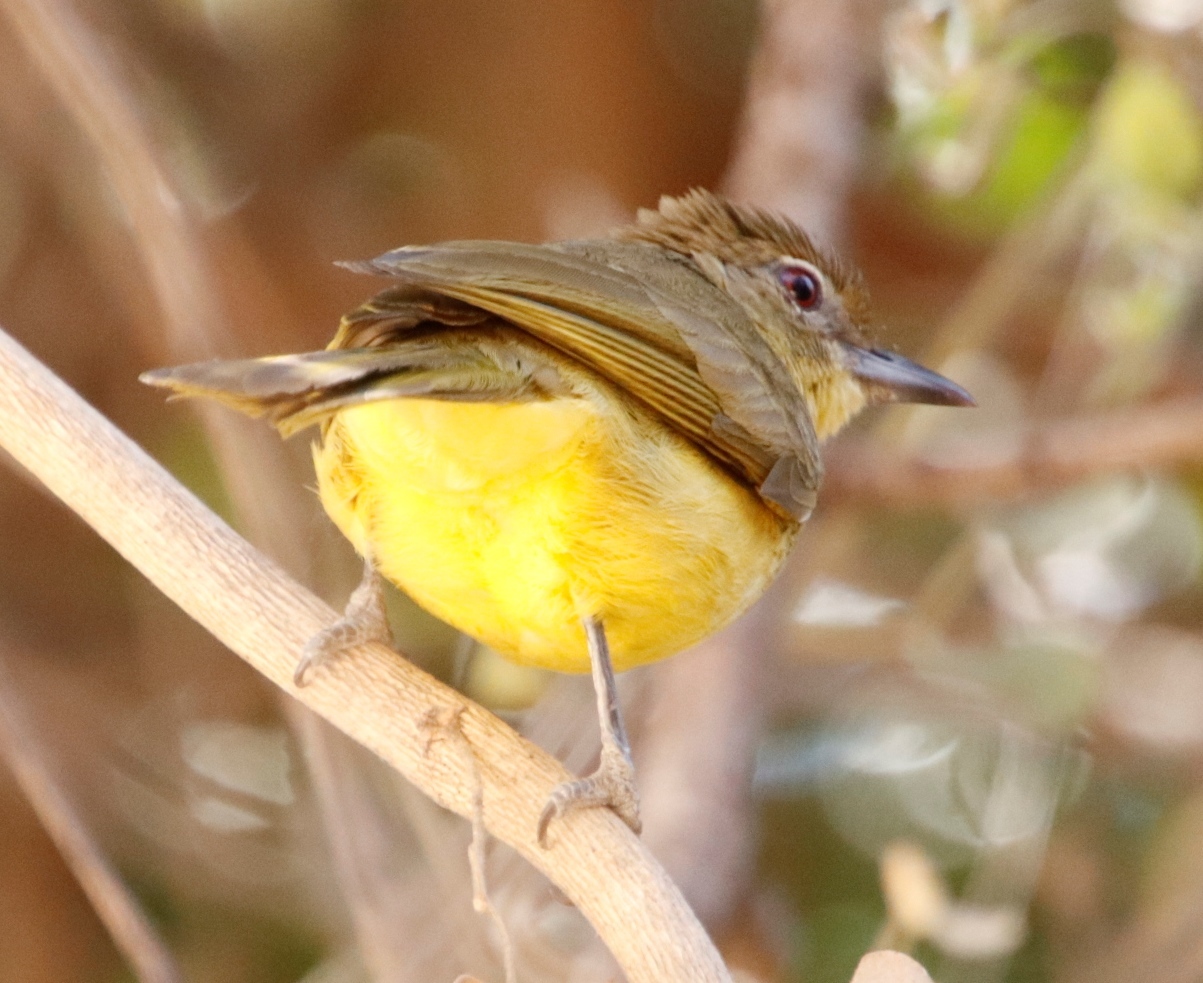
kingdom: Animalia
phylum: Chordata
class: Aves
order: Passeriformes
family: Pycnonotidae
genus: Chlorocichla
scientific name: Chlorocichla flaviventris
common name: Yellow-bellied greenbul
